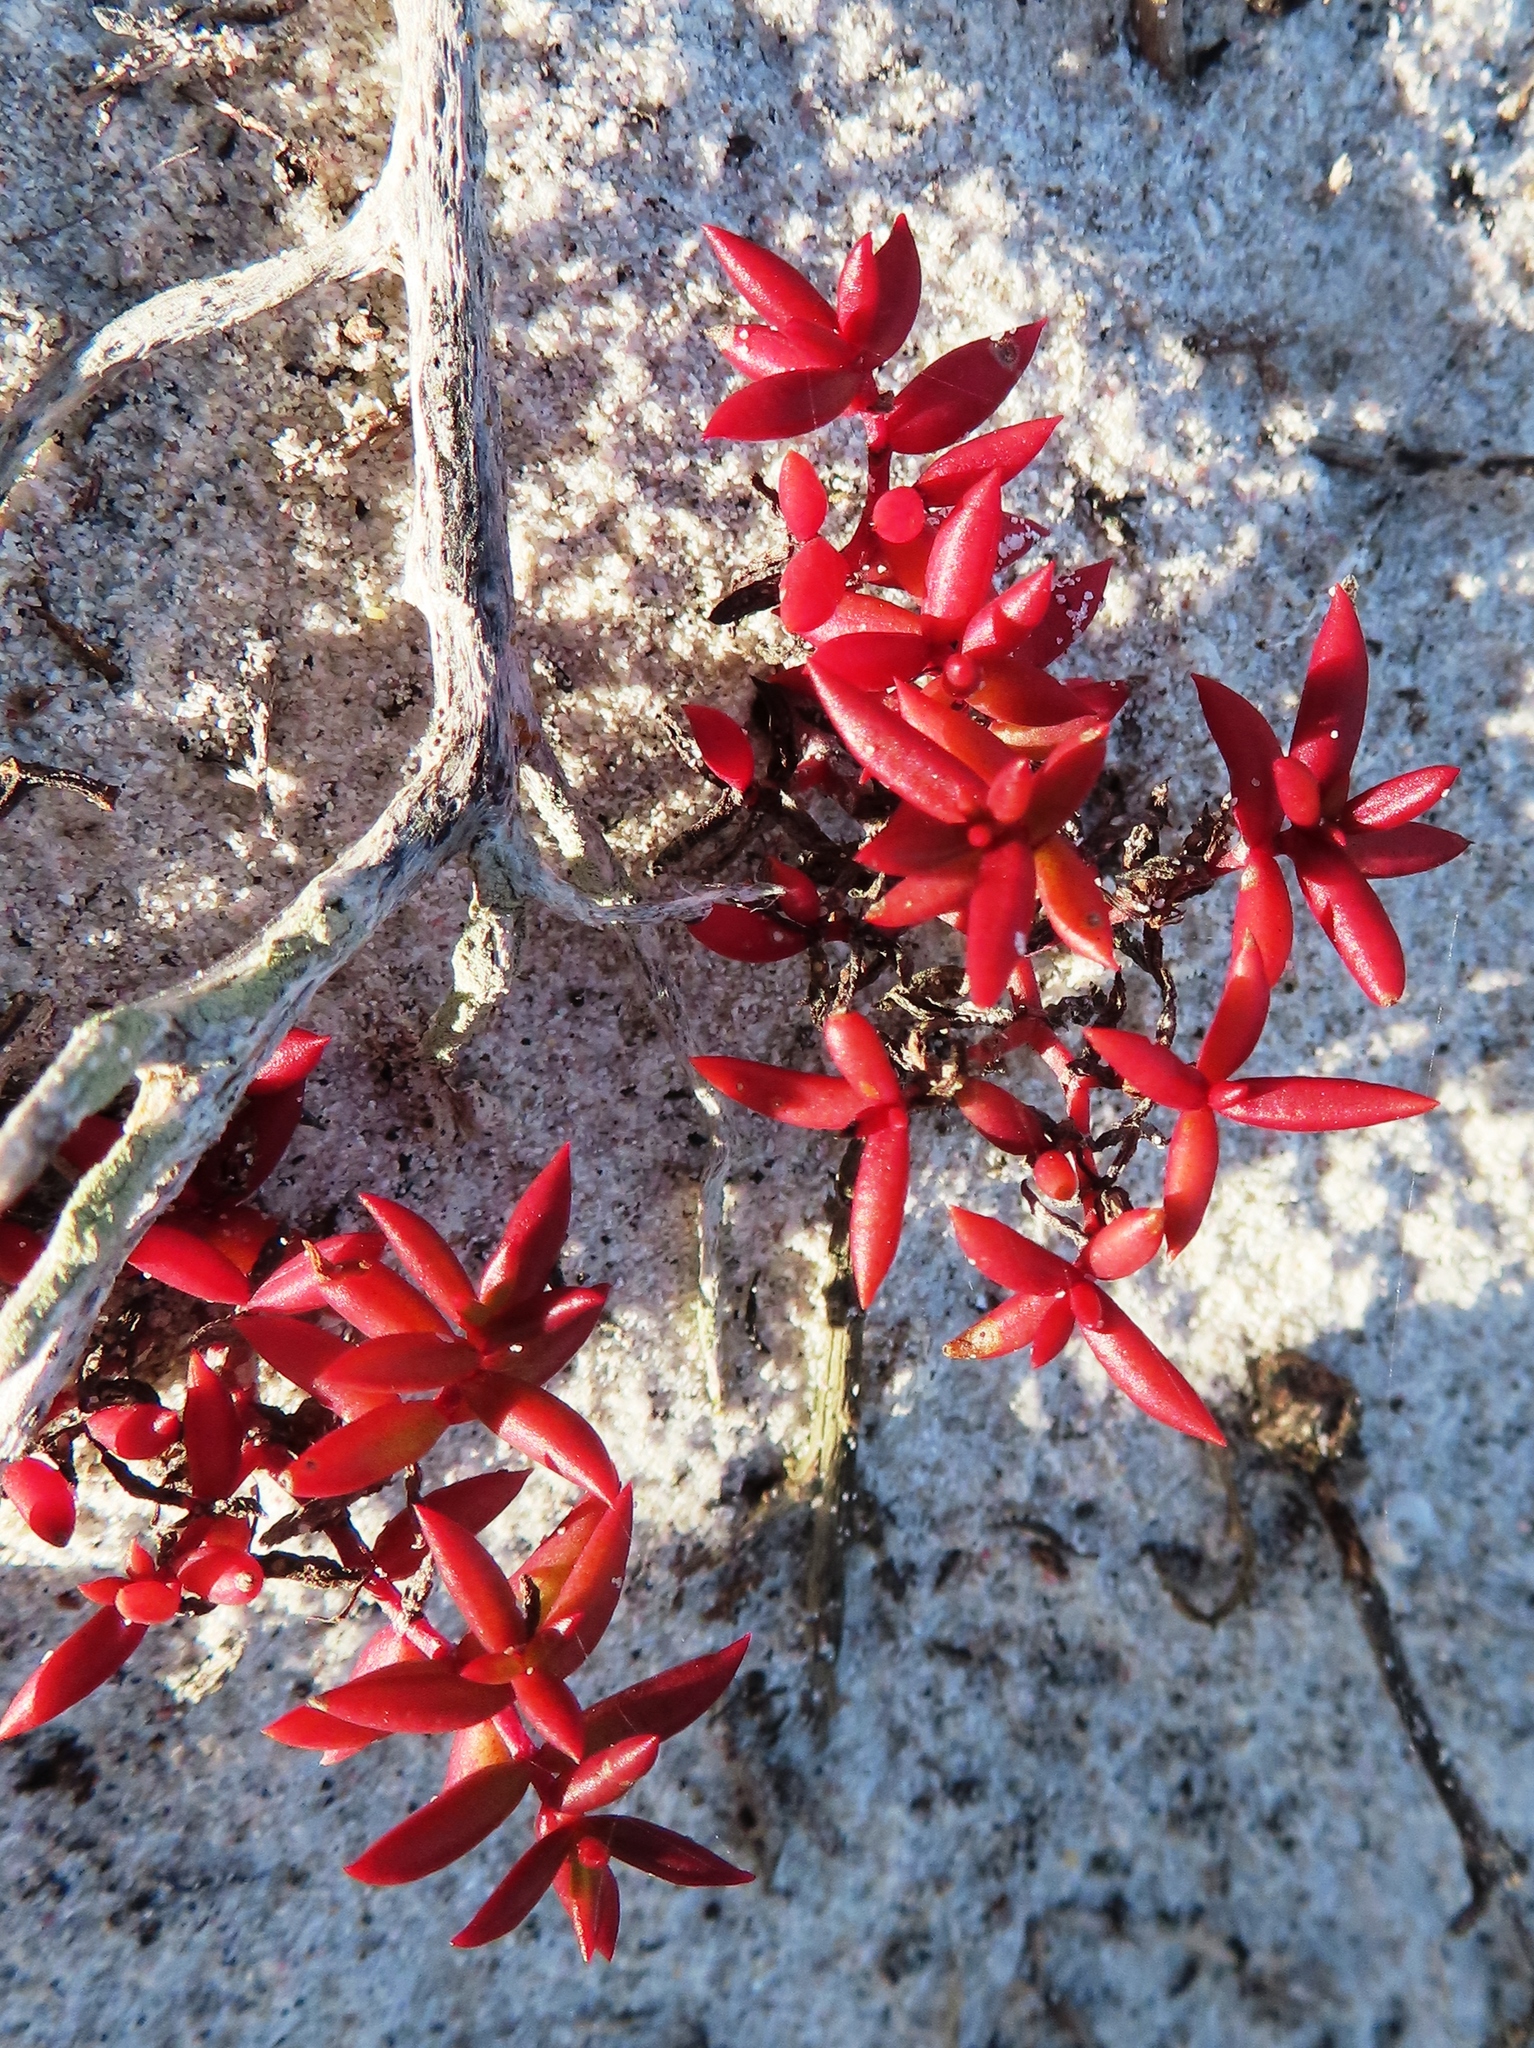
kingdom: Plantae
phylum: Tracheophyta
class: Magnoliopsida
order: Saxifragales
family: Crassulaceae
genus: Crassula
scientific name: Crassula expansa
